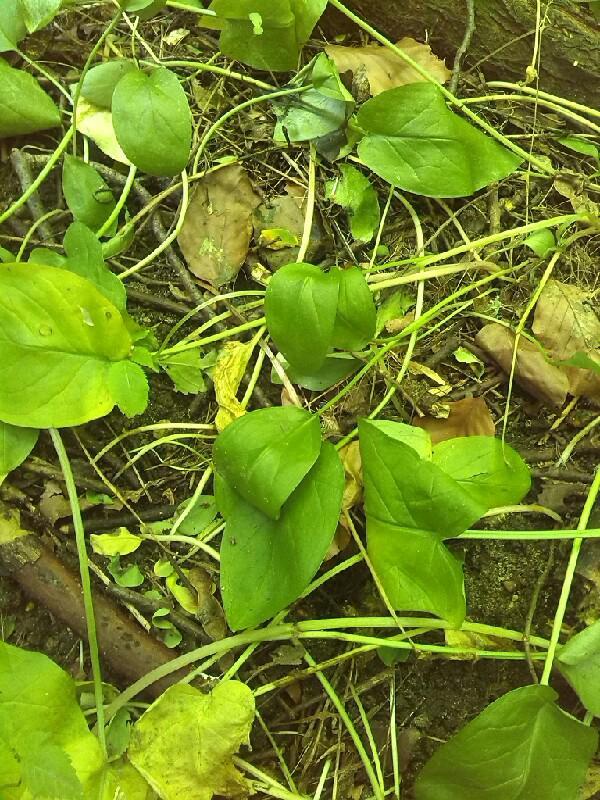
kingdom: Plantae
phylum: Tracheophyta
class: Liliopsida
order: Alismatales
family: Araceae
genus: Arum
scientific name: Arum maculatum
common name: Lords-and-ladies
